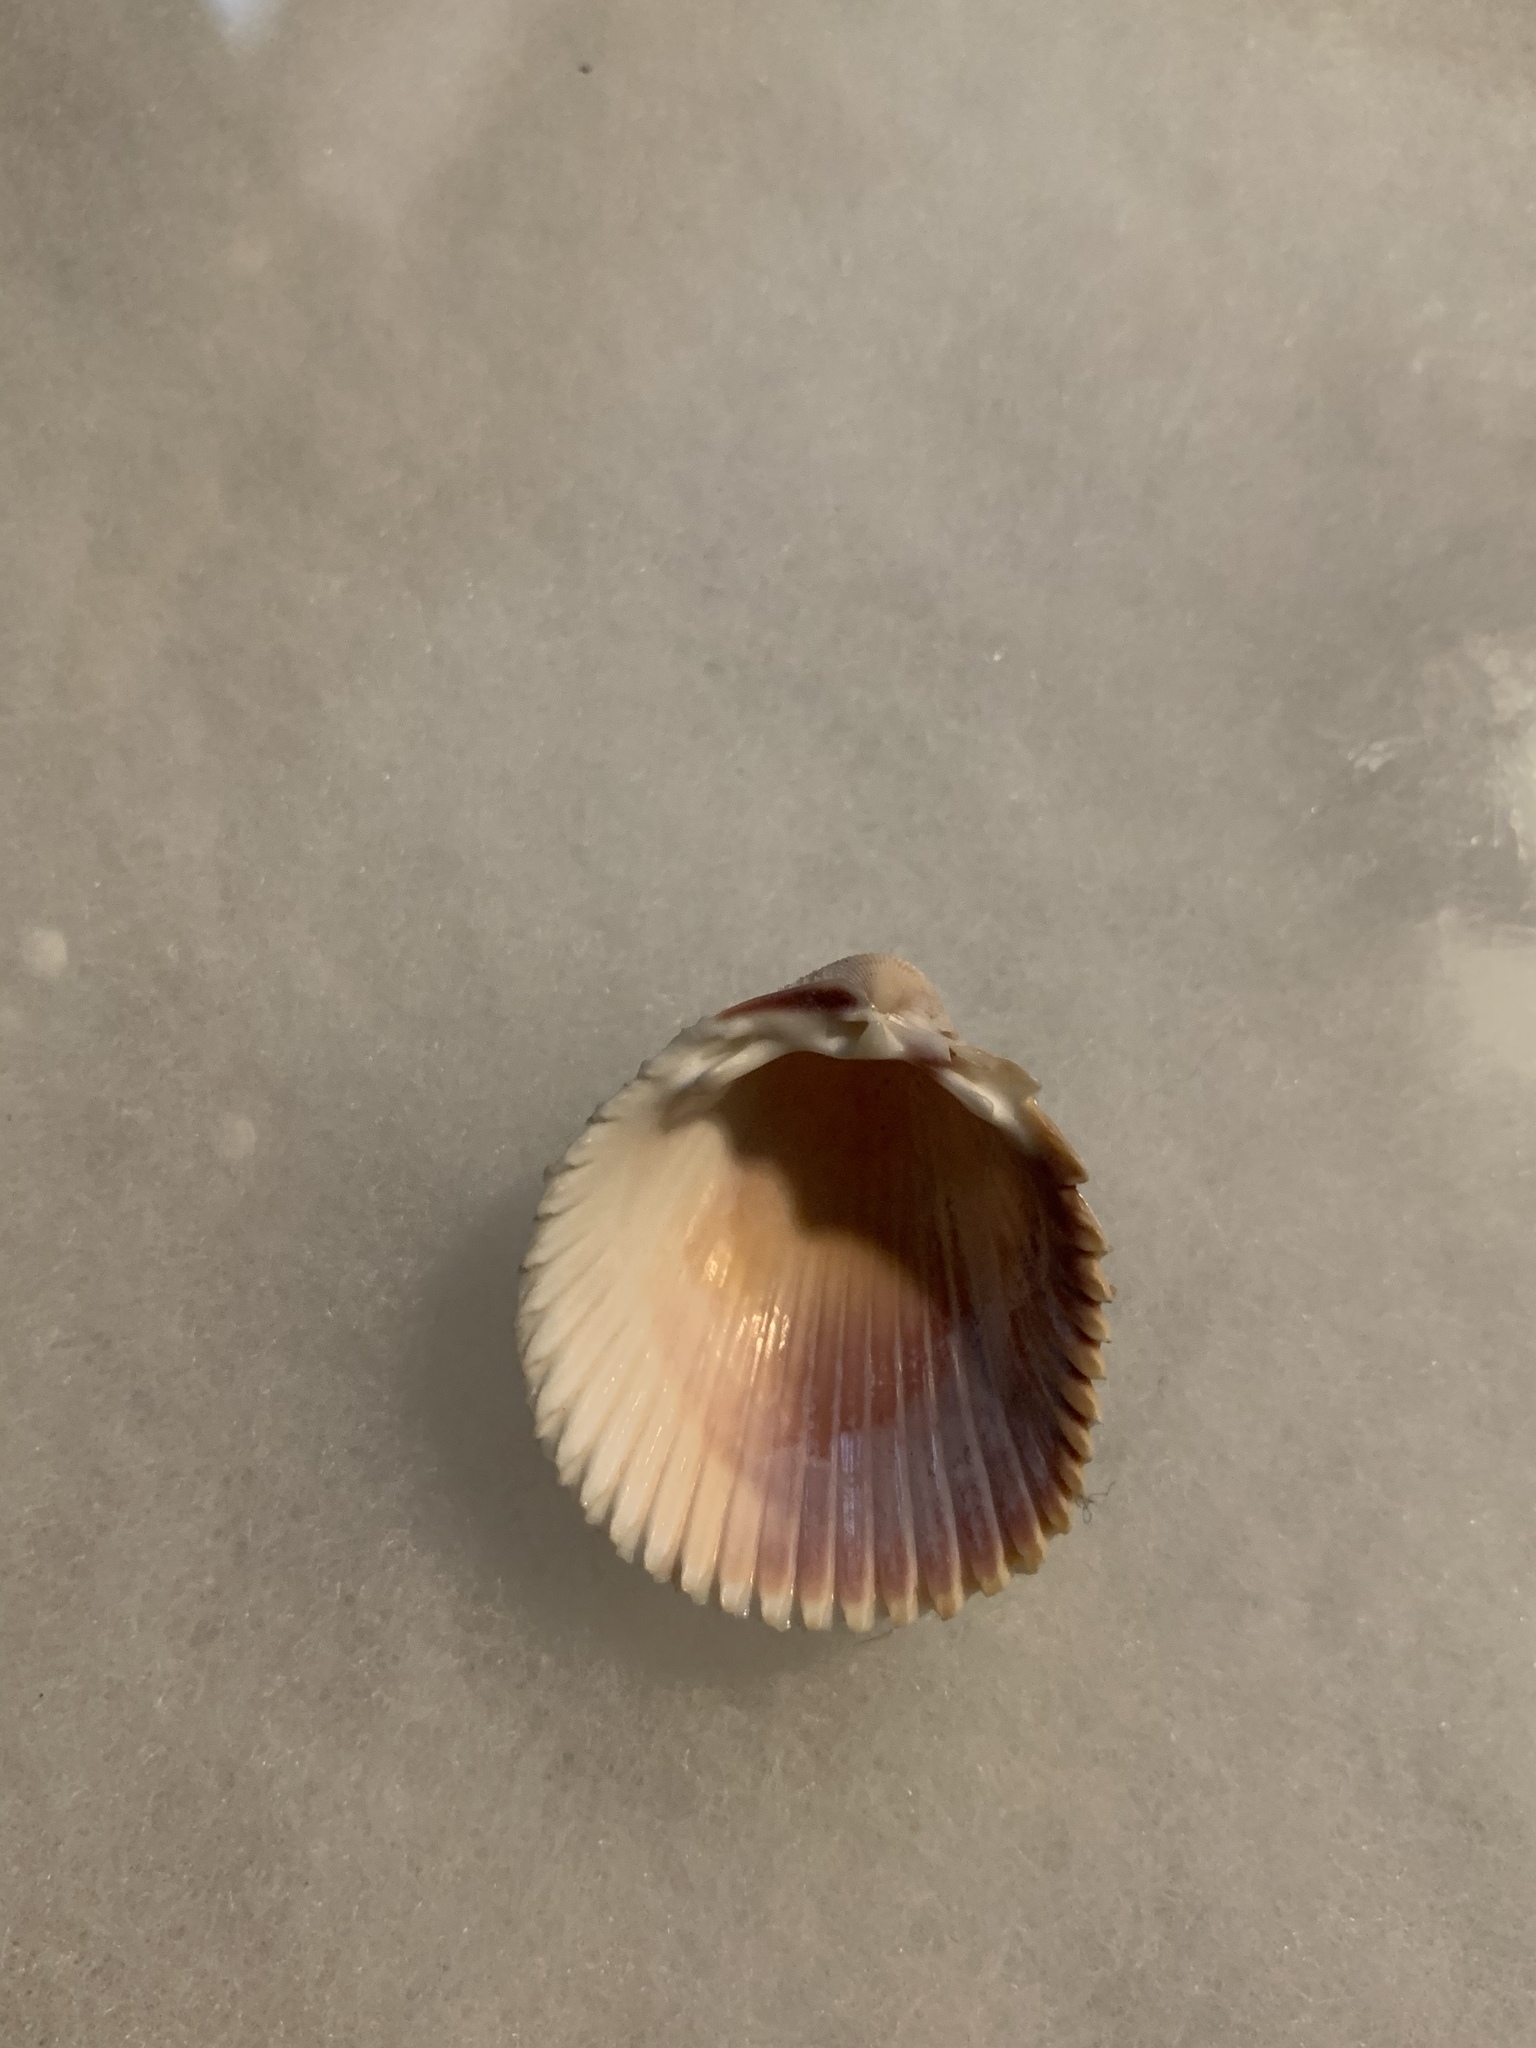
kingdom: Animalia
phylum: Mollusca
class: Bivalvia
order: Cardiida
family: Cardiidae
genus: Trachycardium
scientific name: Trachycardium egmontianum
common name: Florida pricklycockle
